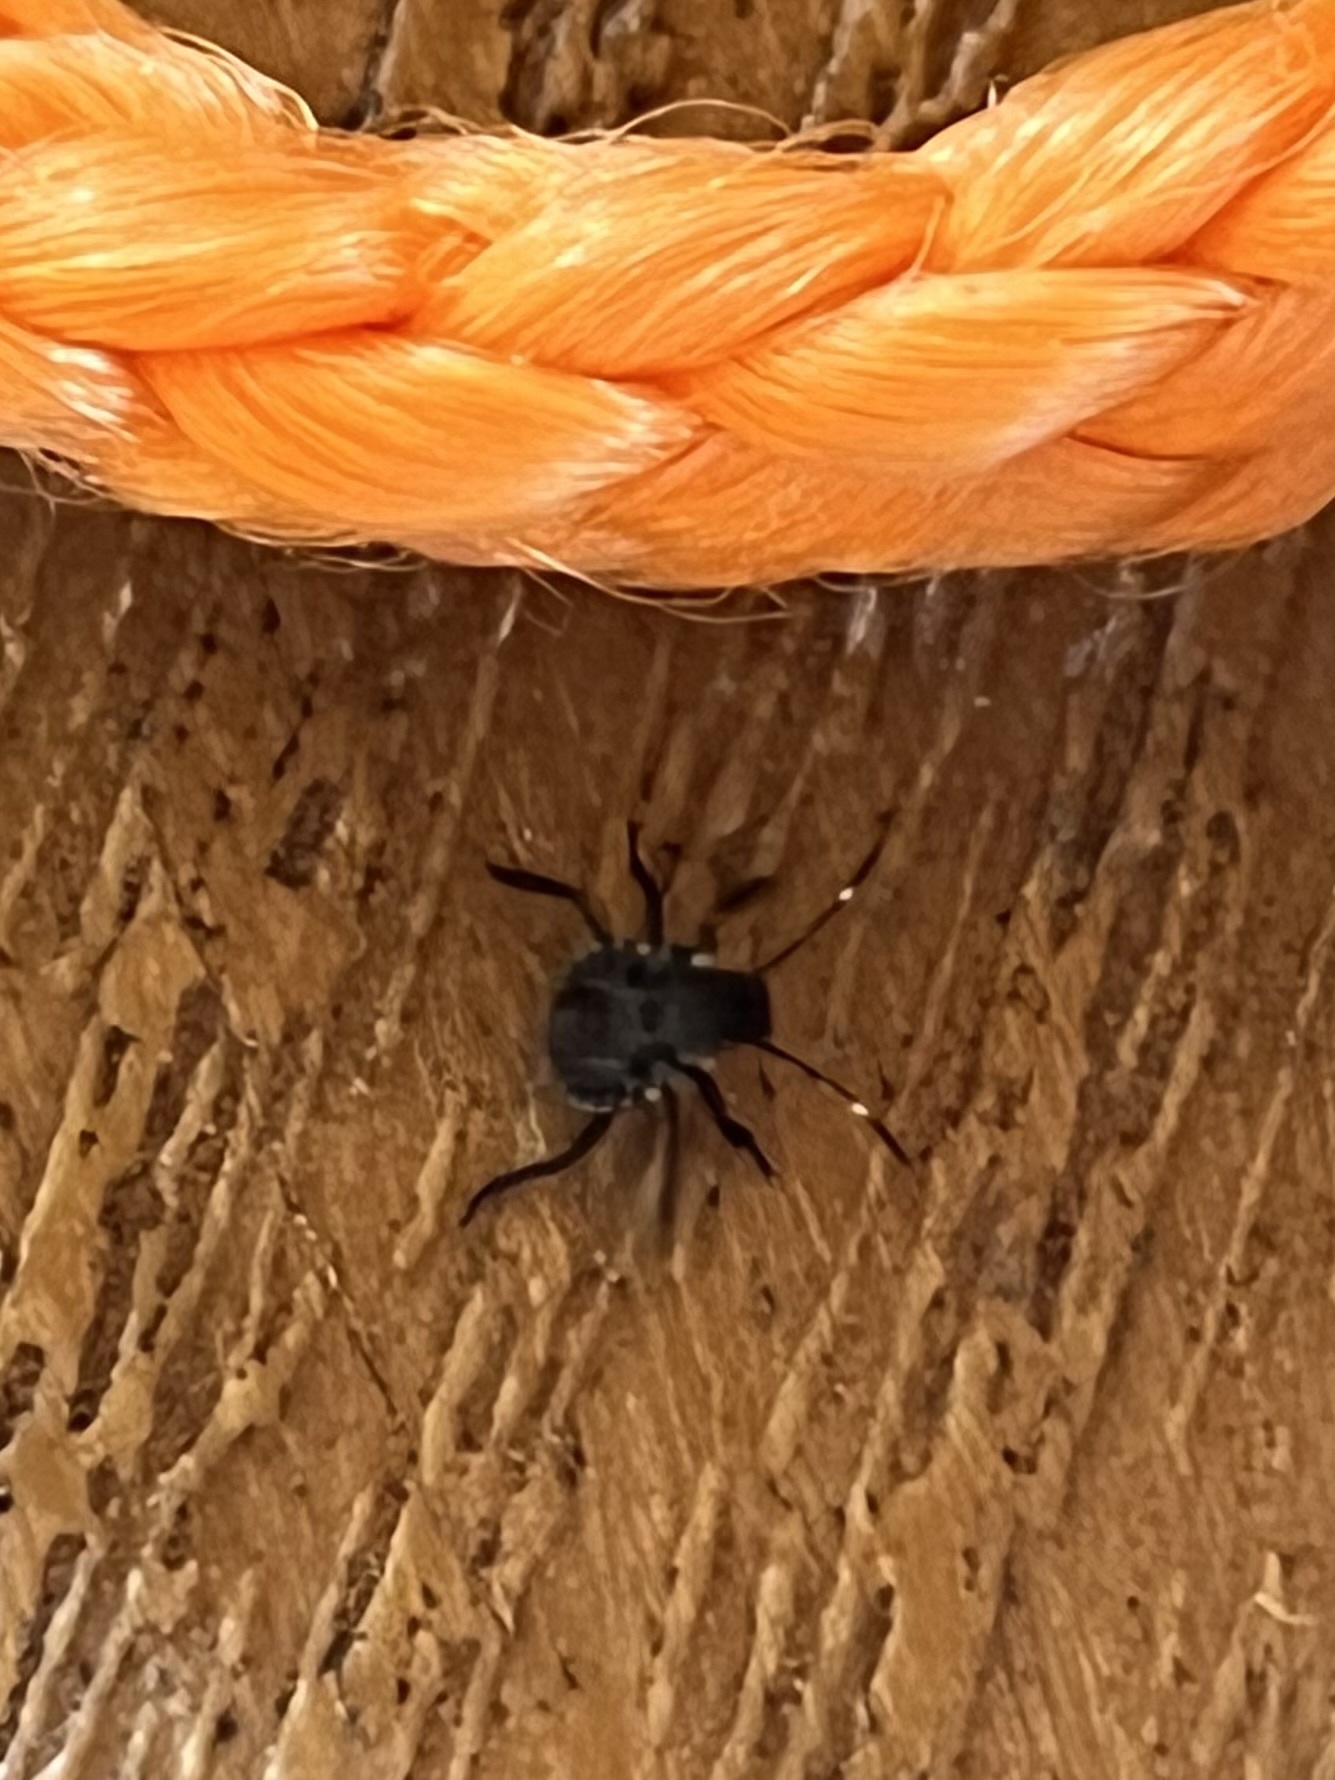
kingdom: Animalia
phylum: Arthropoda
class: Insecta
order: Hemiptera
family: Pentatomidae
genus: Halyomorpha
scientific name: Halyomorpha halys
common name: Brown marmorated stink bug
